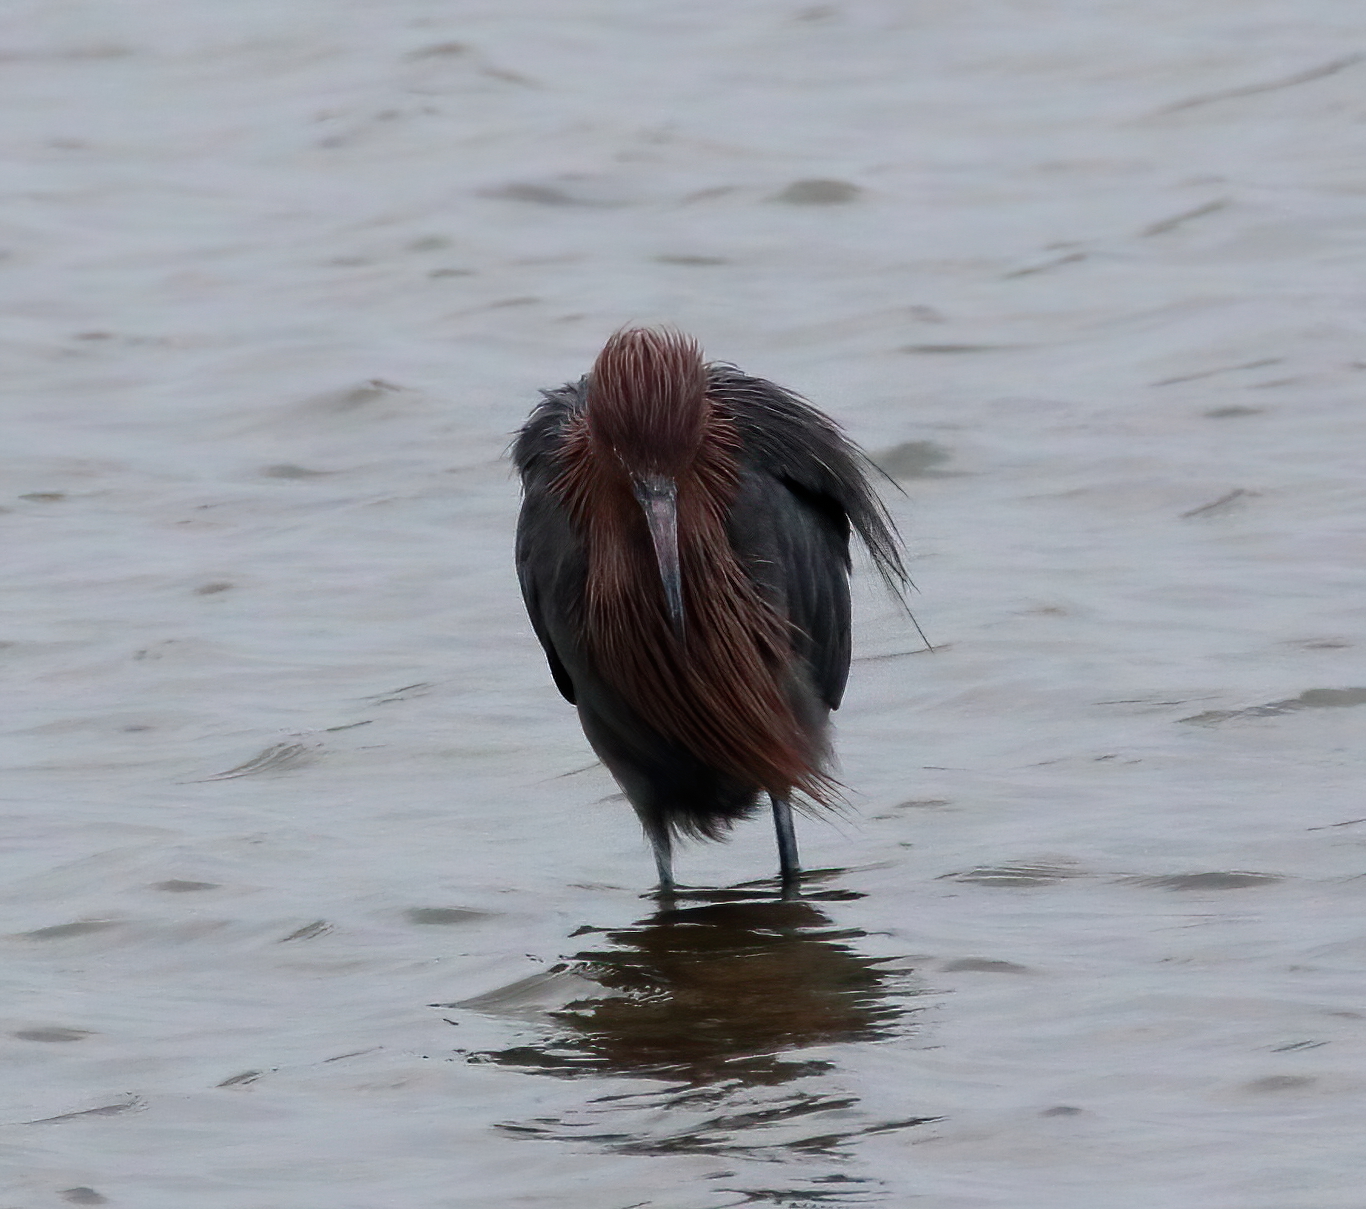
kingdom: Animalia
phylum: Chordata
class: Aves
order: Pelecaniformes
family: Ardeidae
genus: Egretta
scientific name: Egretta rufescens
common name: Reddish egret
